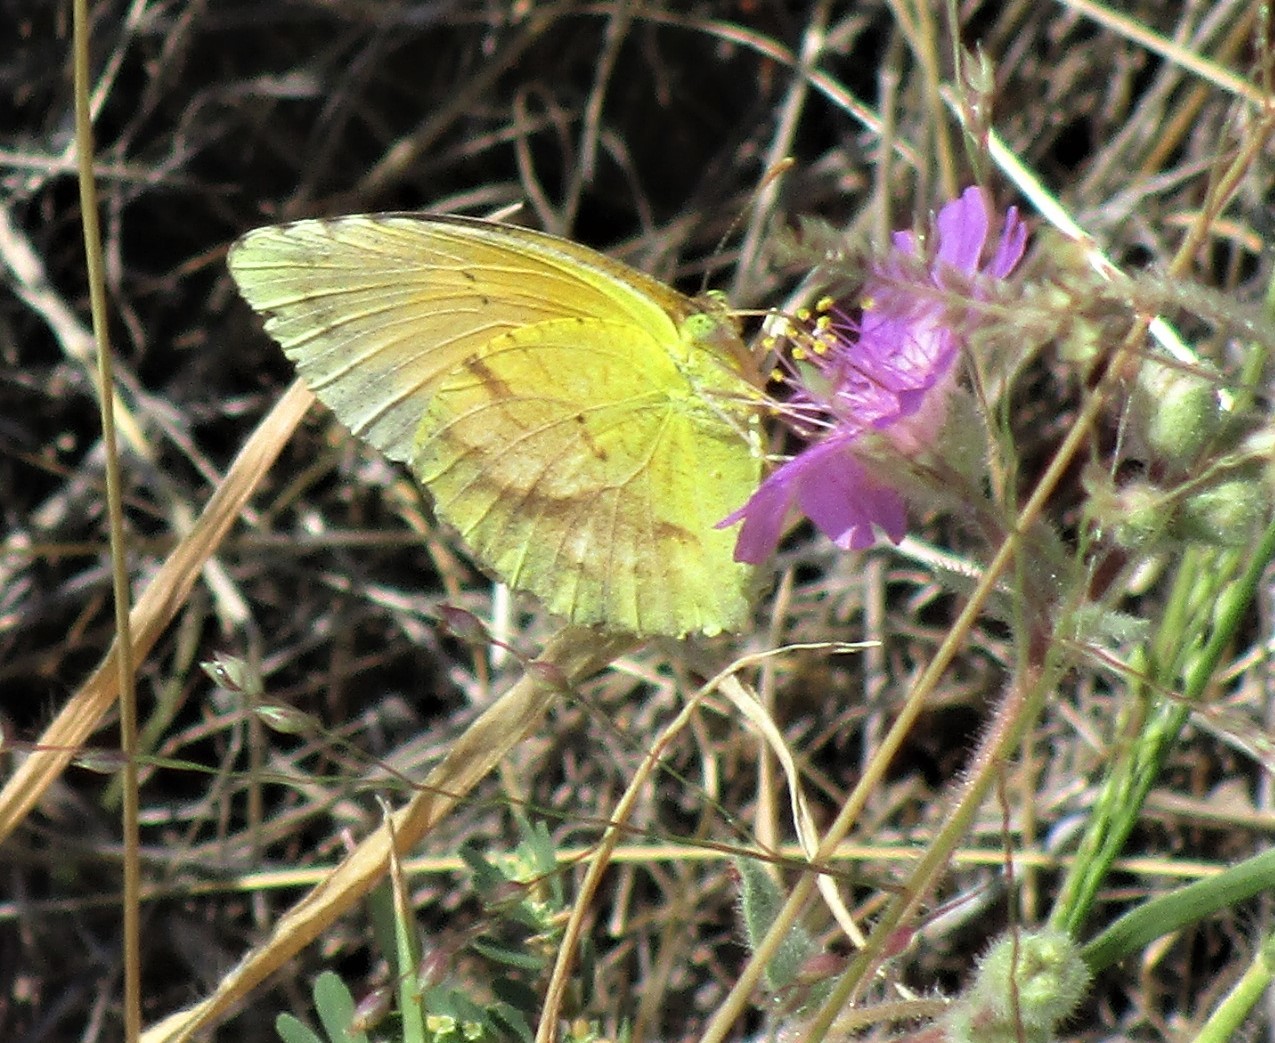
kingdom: Animalia
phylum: Arthropoda
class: Insecta
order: Lepidoptera
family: Pieridae
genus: Abaeis
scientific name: Abaeis nicippe
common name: Sleepy orange
